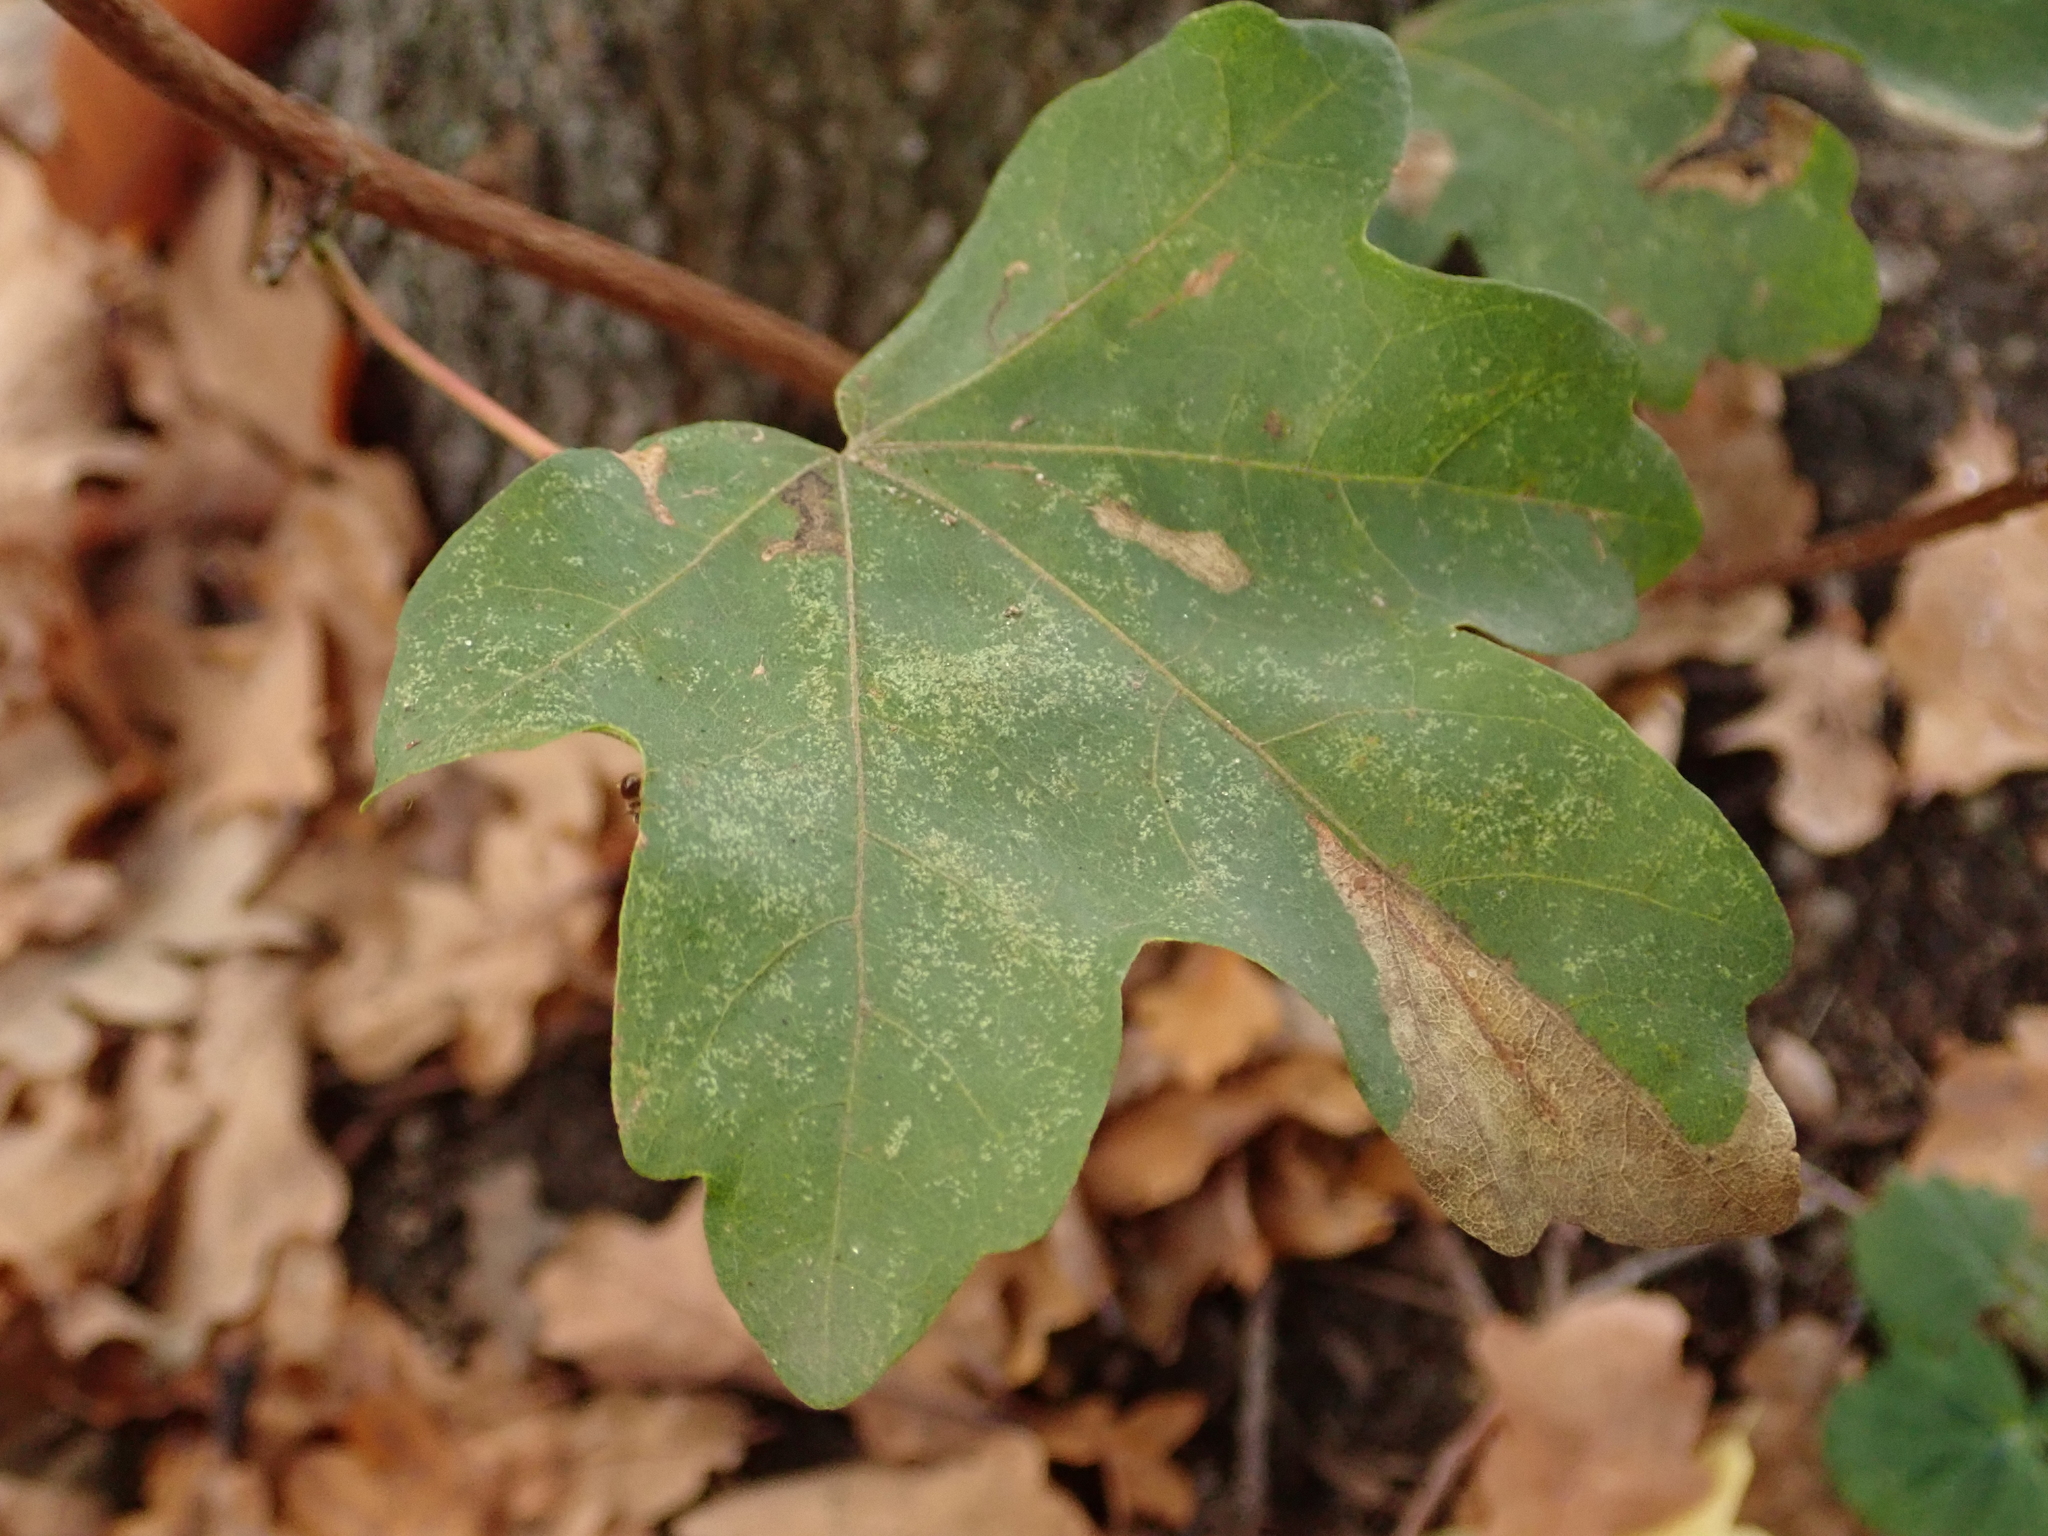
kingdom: Plantae
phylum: Tracheophyta
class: Magnoliopsida
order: Sapindales
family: Sapindaceae
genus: Acer
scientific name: Acer campestre
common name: Field maple
